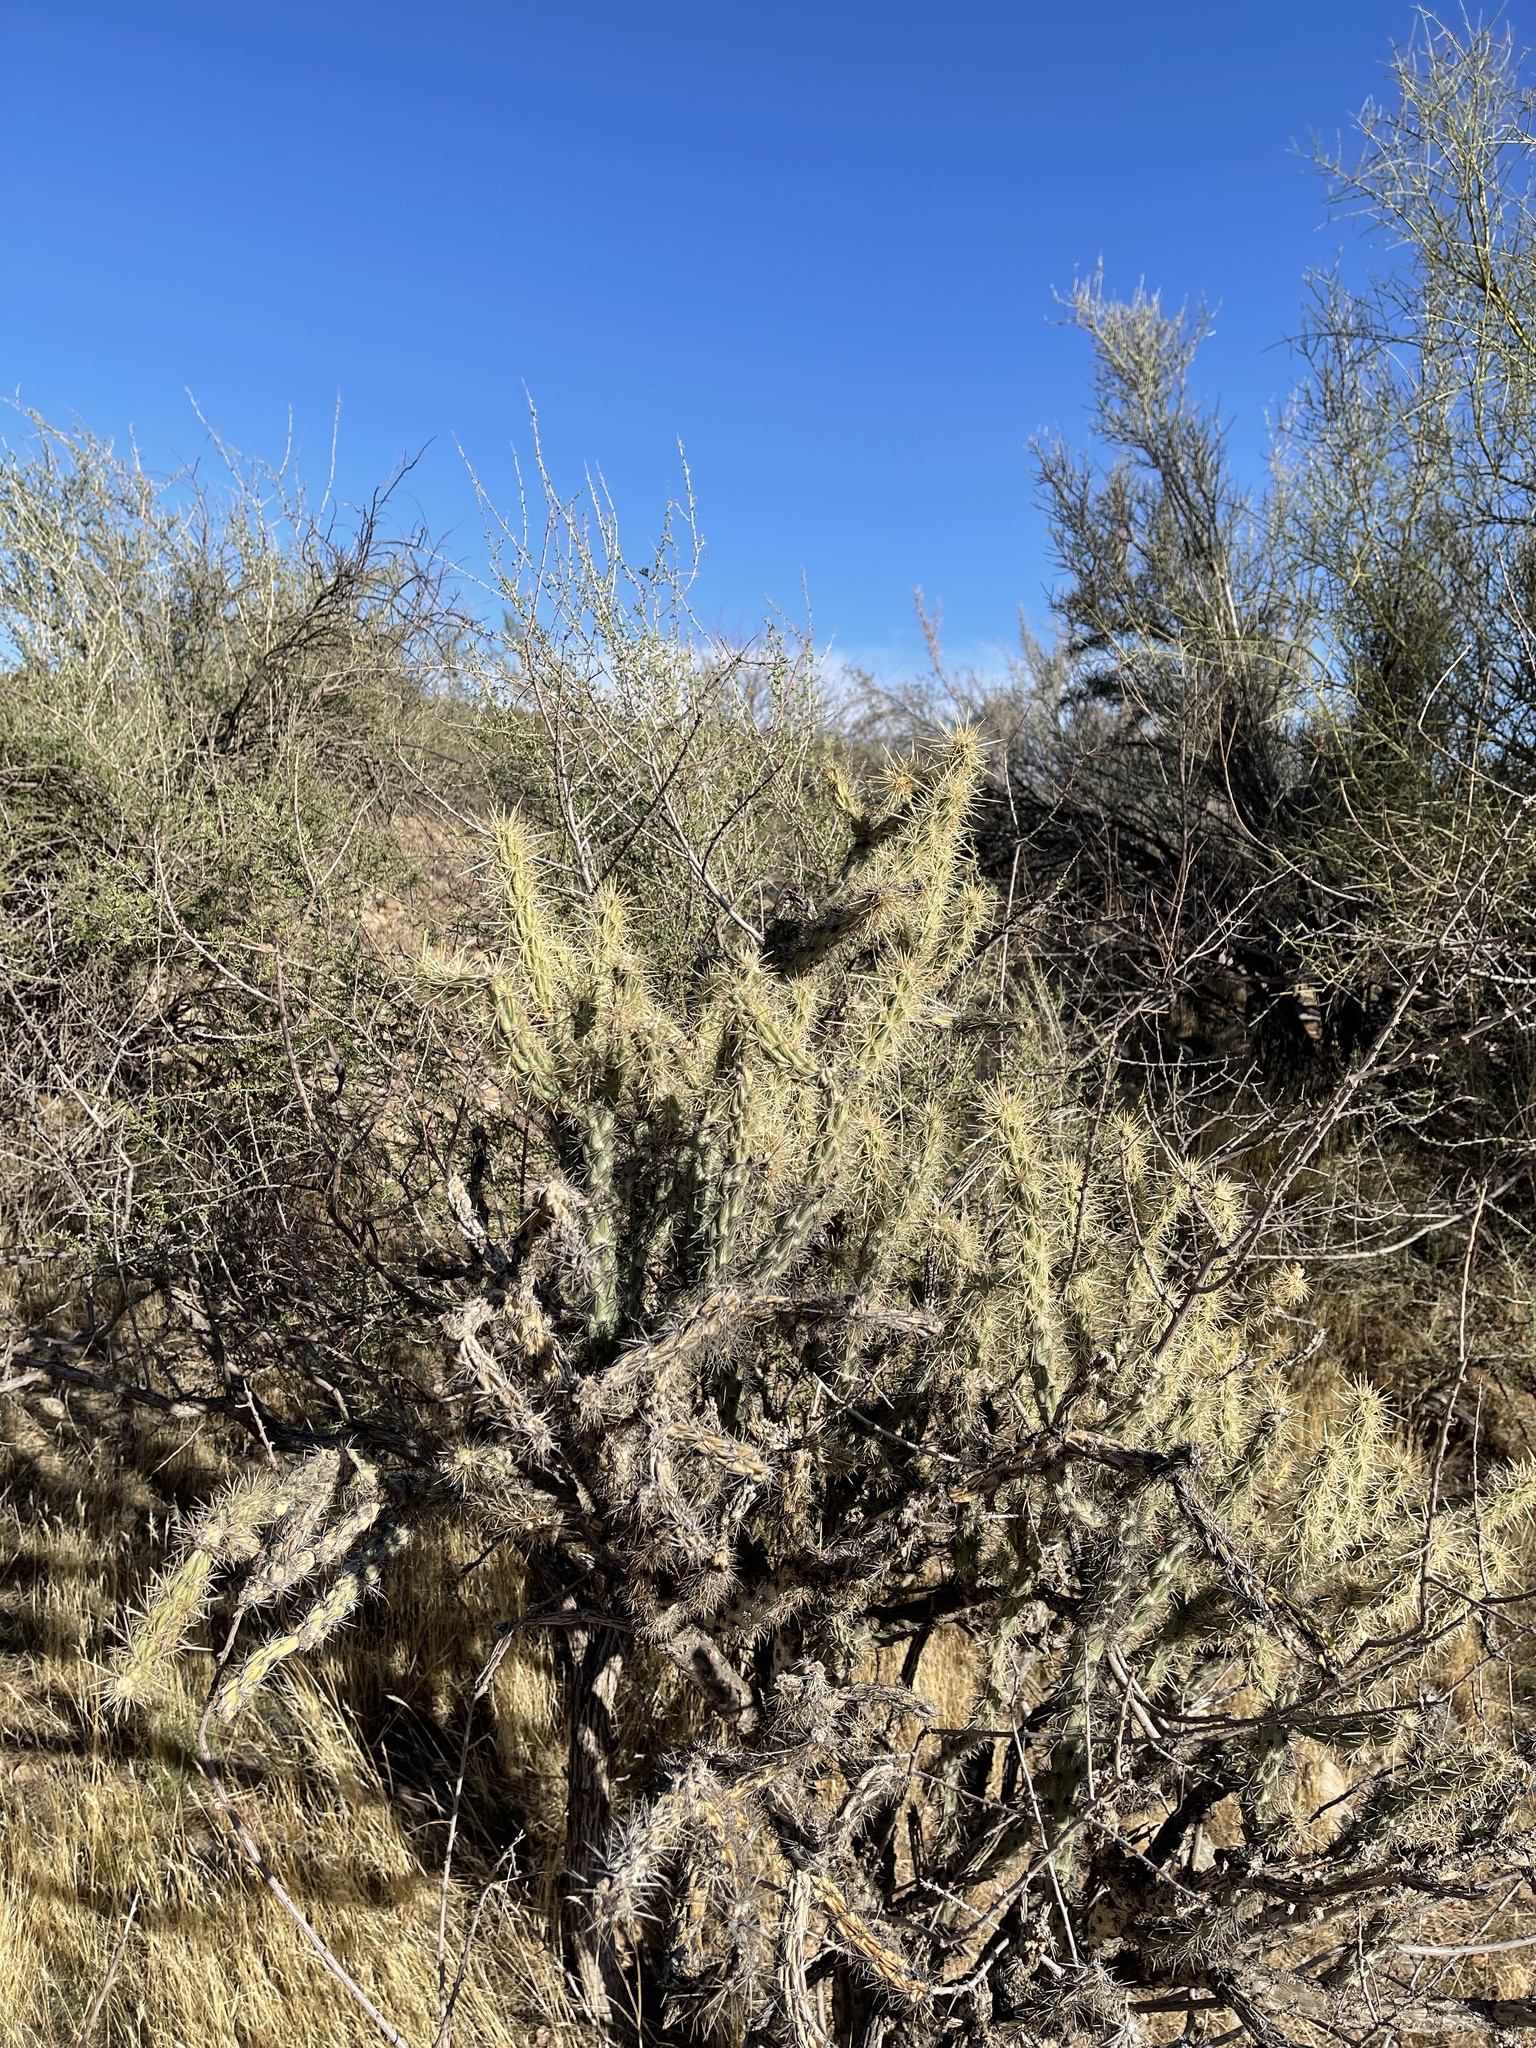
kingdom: Plantae
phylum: Tracheophyta
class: Magnoliopsida
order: Caryophyllales
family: Cactaceae
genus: Cylindropuntia
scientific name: Cylindropuntia acanthocarpa
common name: Buckhorn cholla
